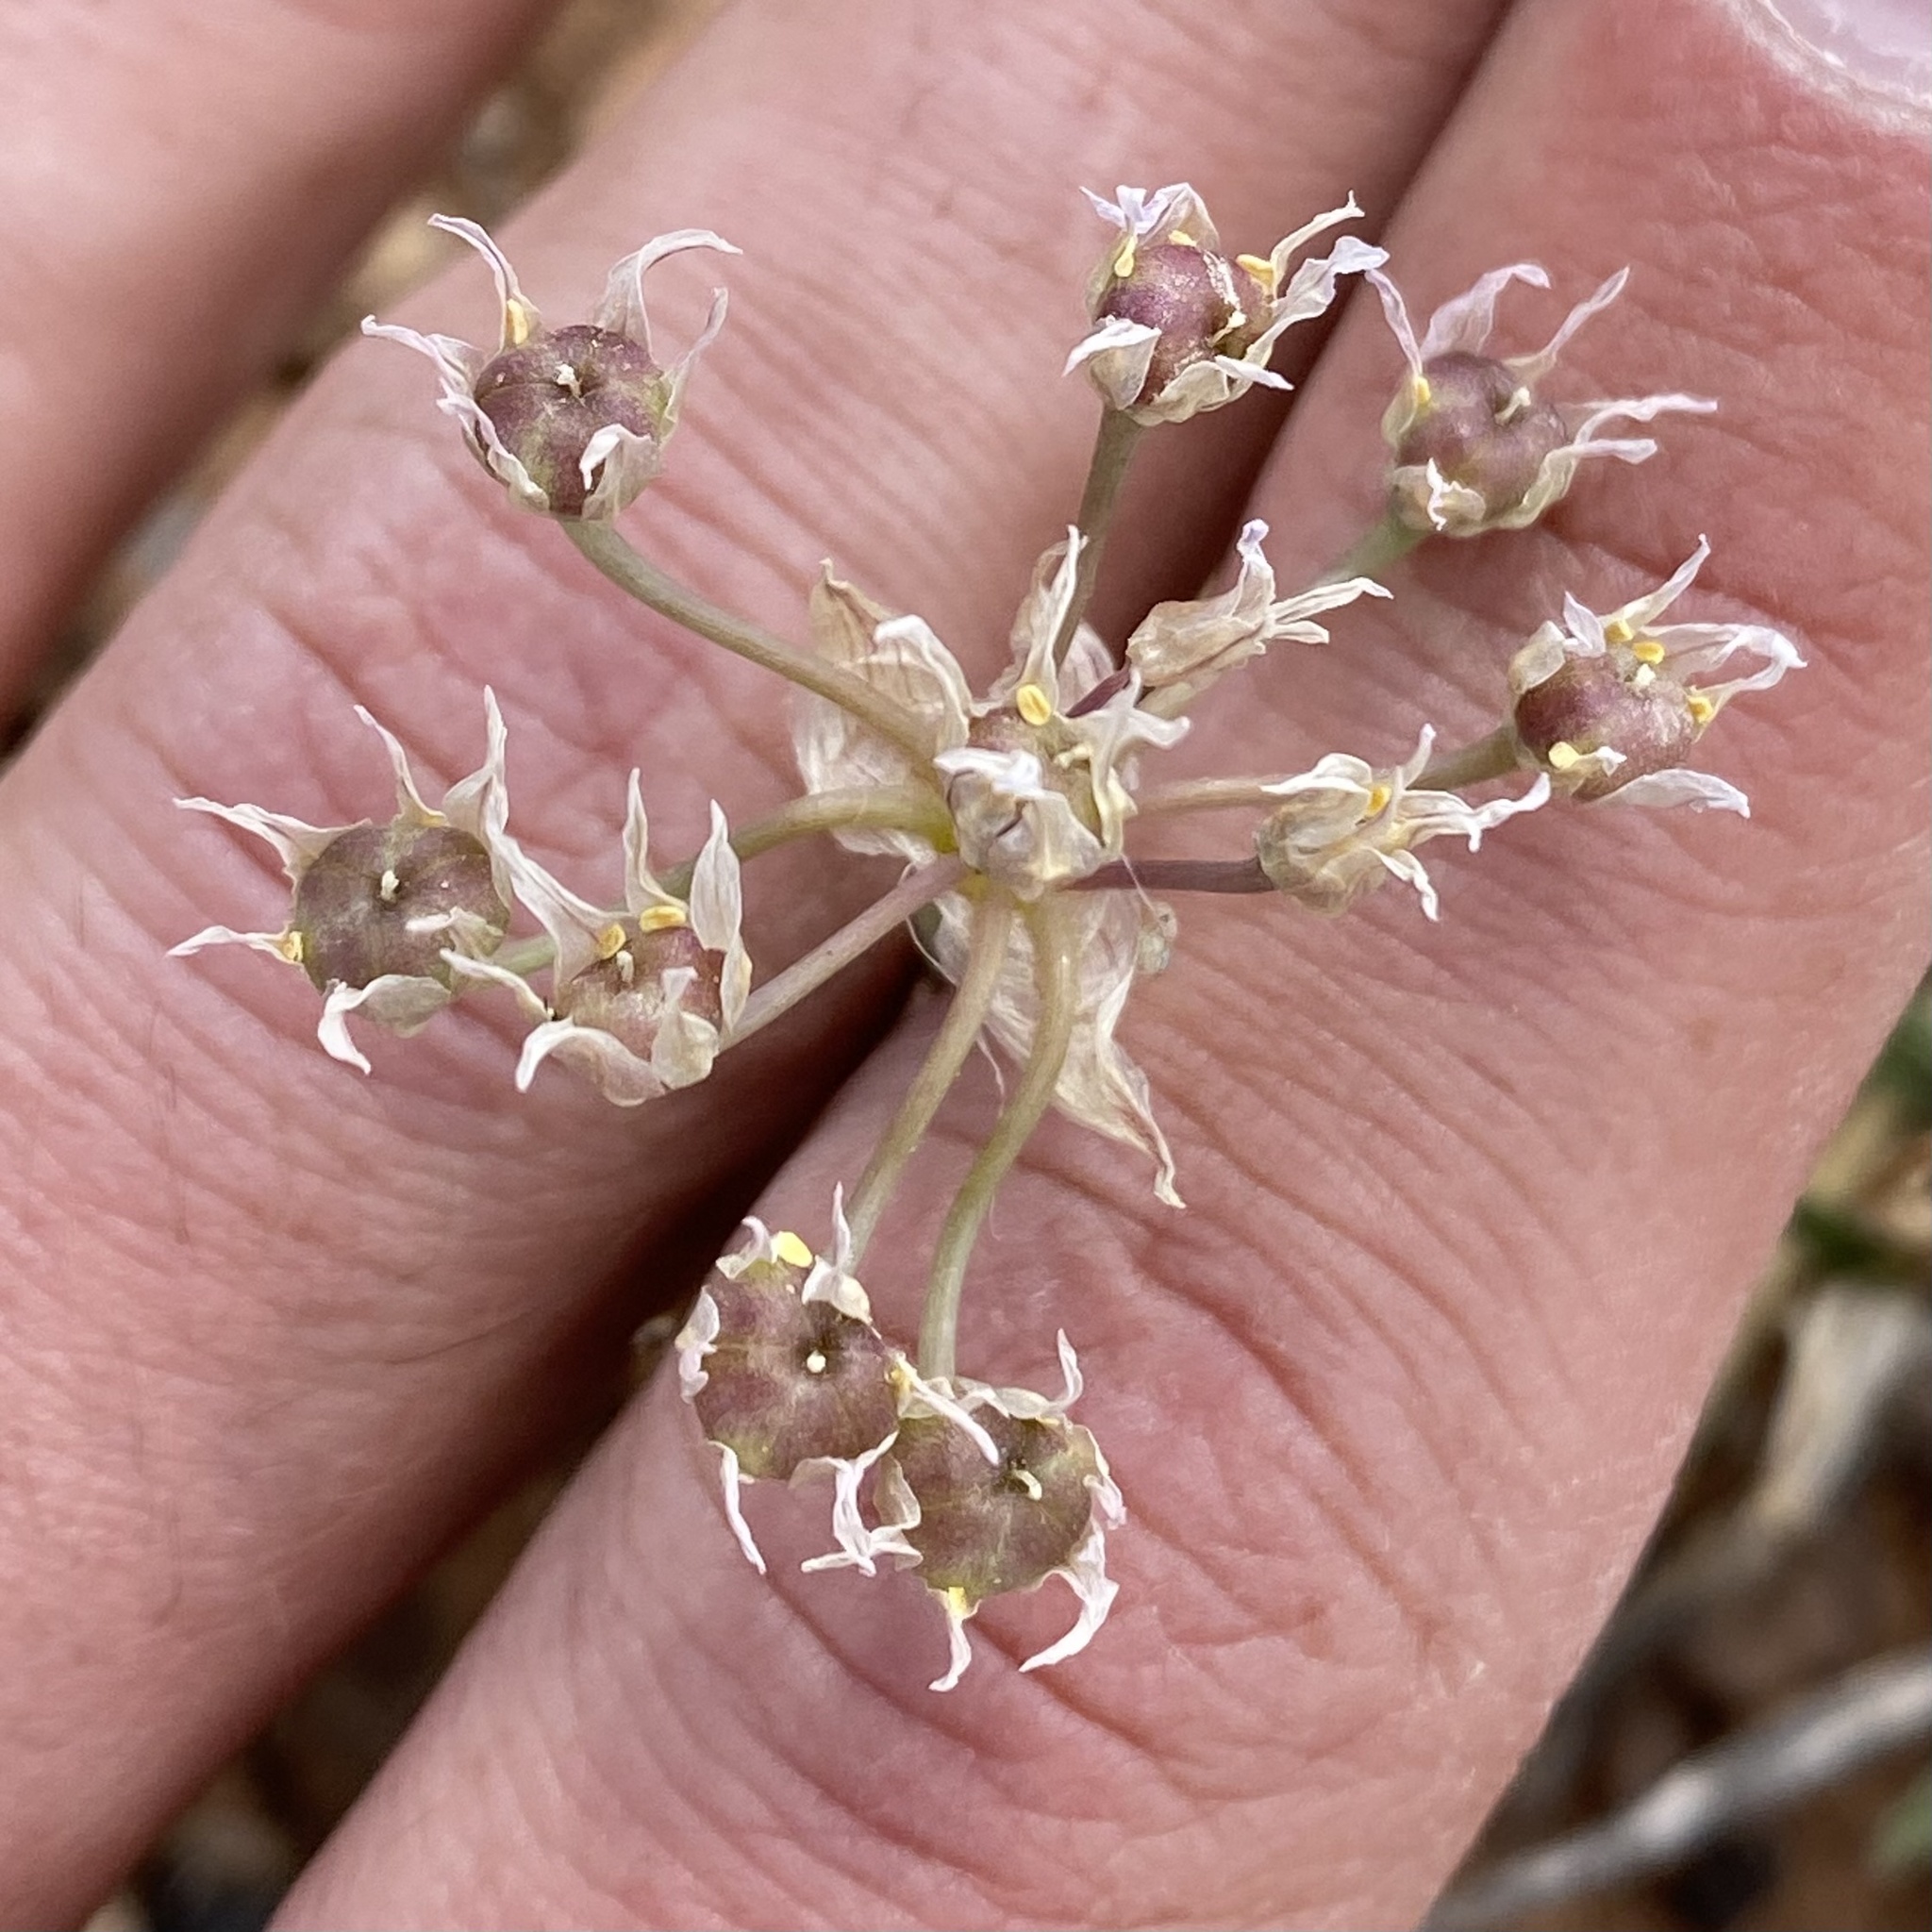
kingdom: Plantae
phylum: Tracheophyta
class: Liliopsida
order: Asparagales
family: Amaryllidaceae
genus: Allium
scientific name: Allium drummondii
